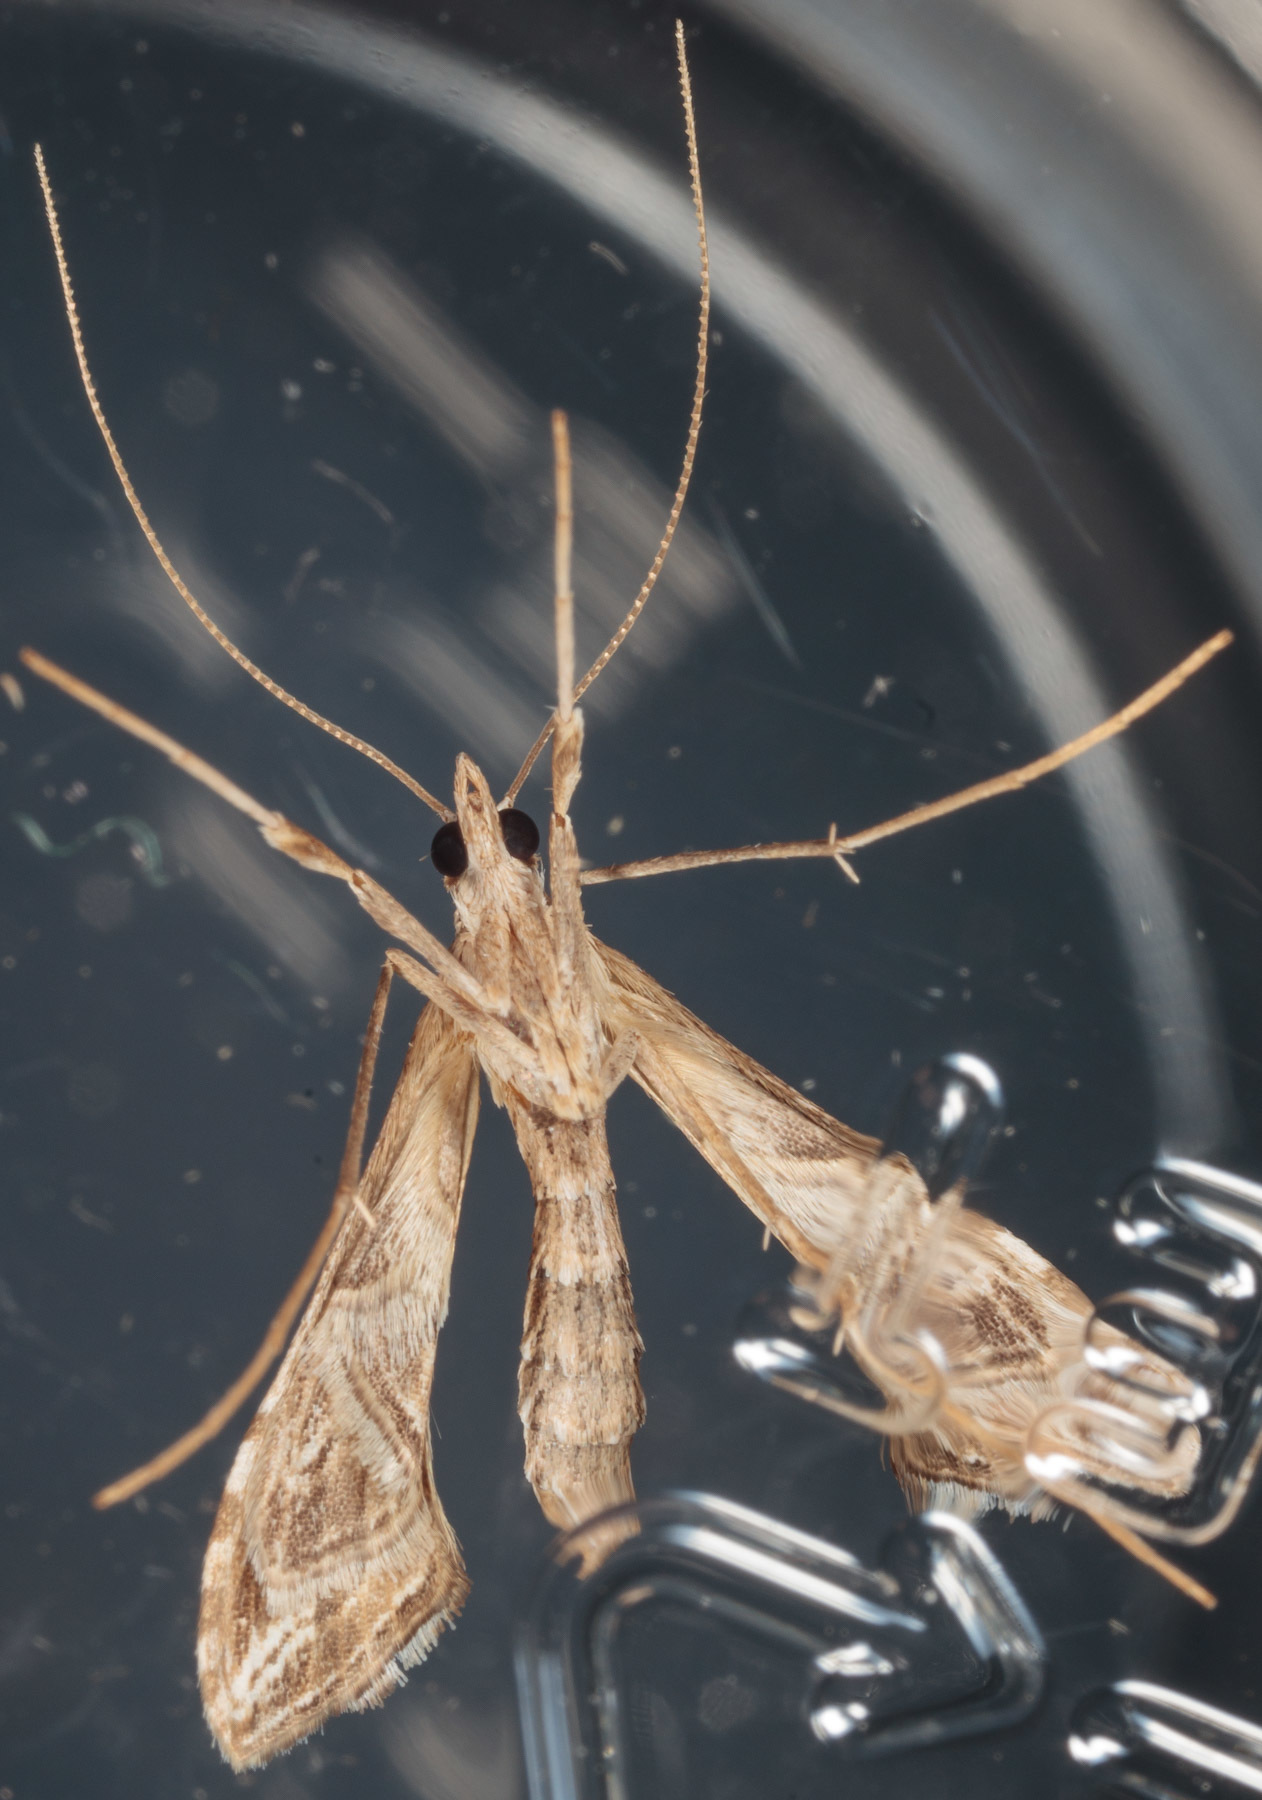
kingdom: Animalia
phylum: Arthropoda
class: Insecta
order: Lepidoptera
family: Crambidae
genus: Lineodes
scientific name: Lineodes integra
